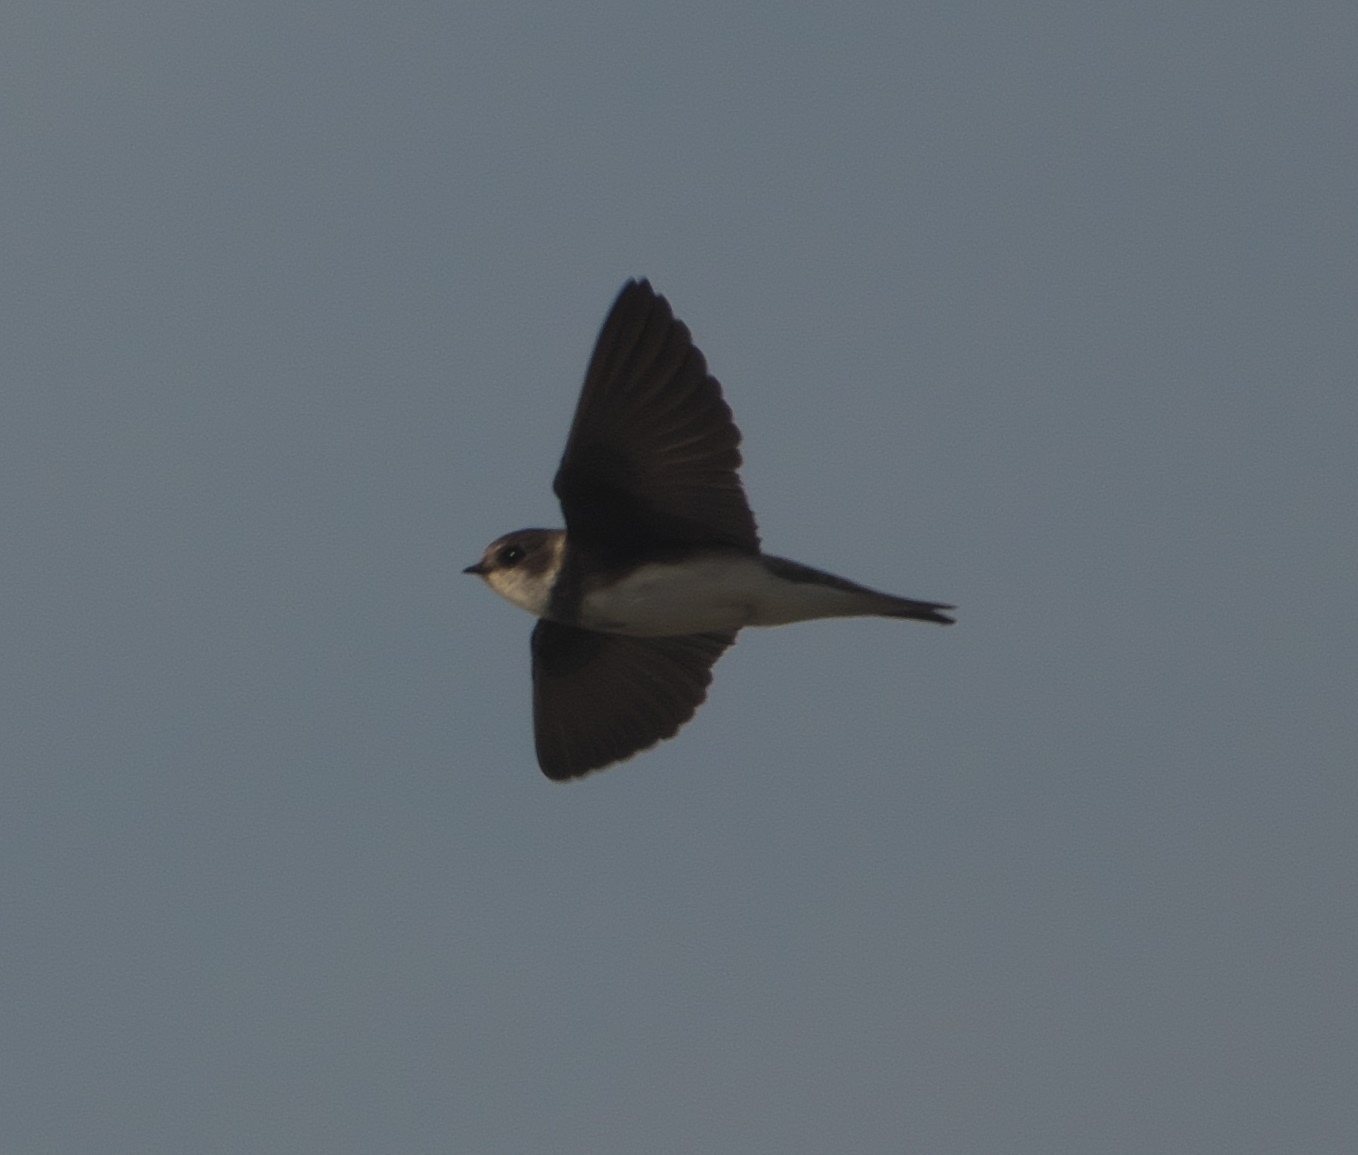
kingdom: Animalia
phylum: Chordata
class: Aves
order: Passeriformes
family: Hirundinidae
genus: Riparia
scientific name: Riparia riparia
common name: Sand martin
